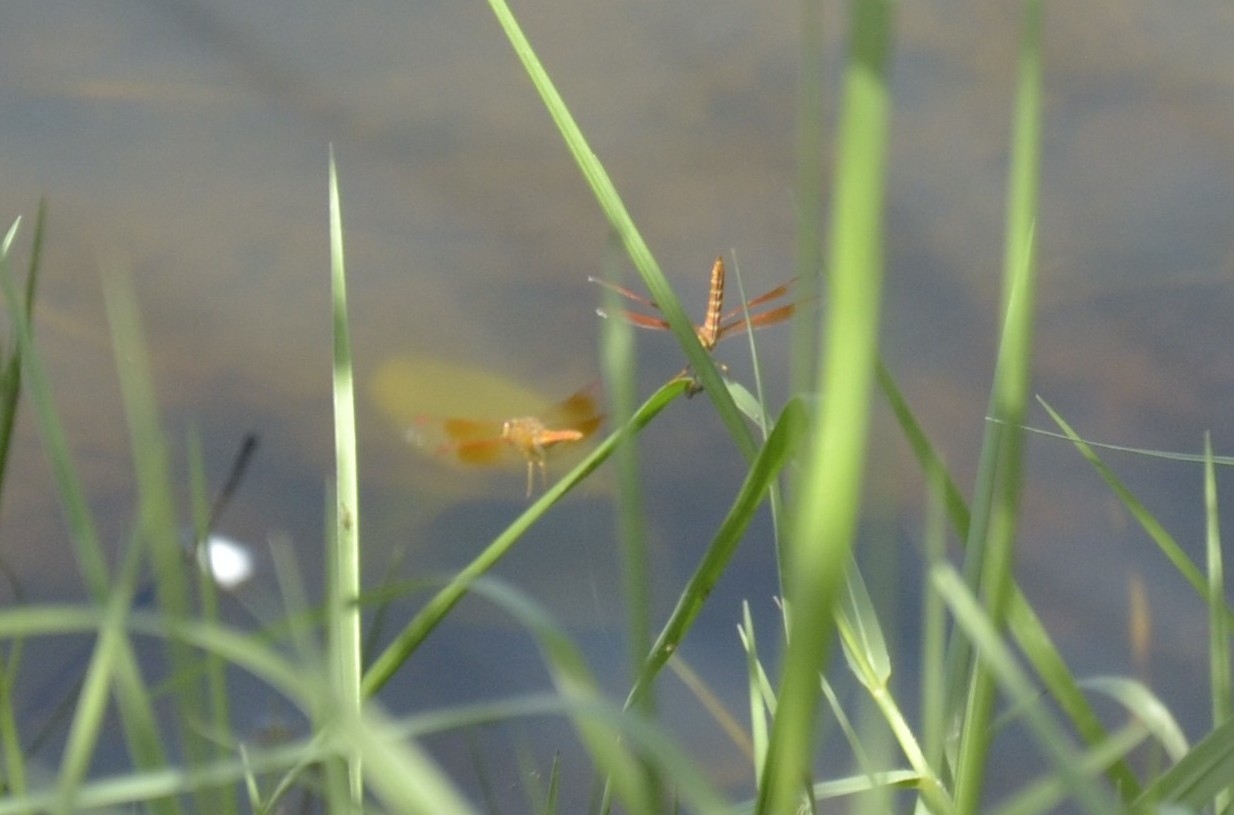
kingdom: Animalia
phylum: Arthropoda
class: Insecta
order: Odonata
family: Libellulidae
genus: Brachythemis
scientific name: Brachythemis contaminata
